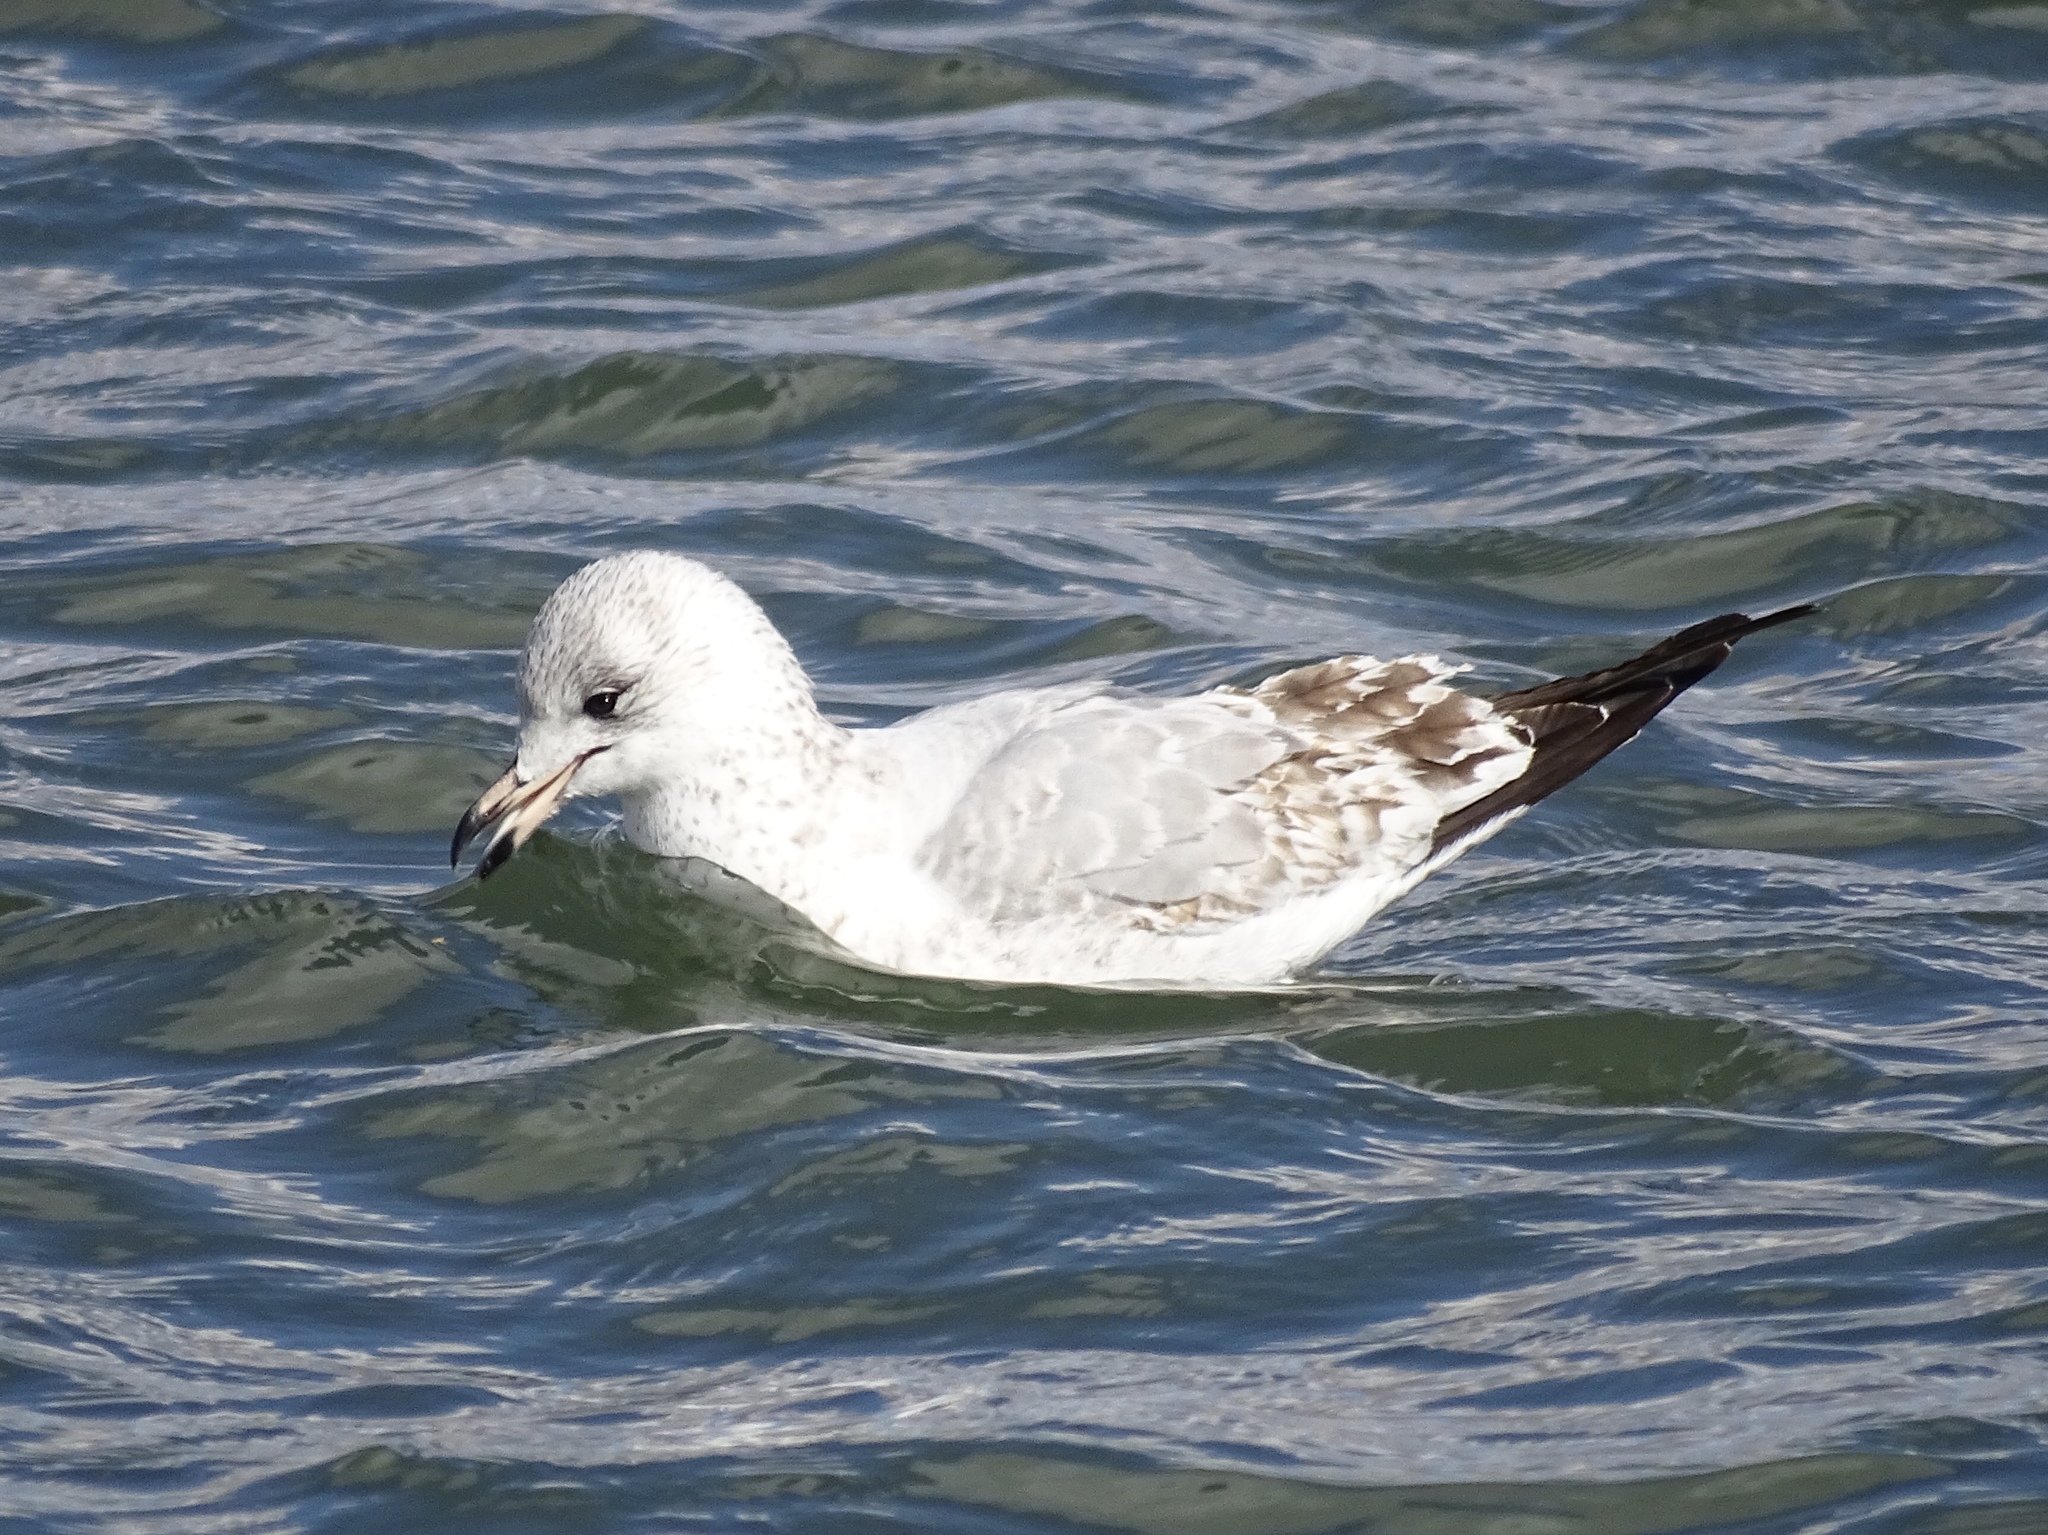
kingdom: Animalia
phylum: Chordata
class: Aves
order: Charadriiformes
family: Laridae
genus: Larus
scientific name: Larus delawarensis
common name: Ring-billed gull
